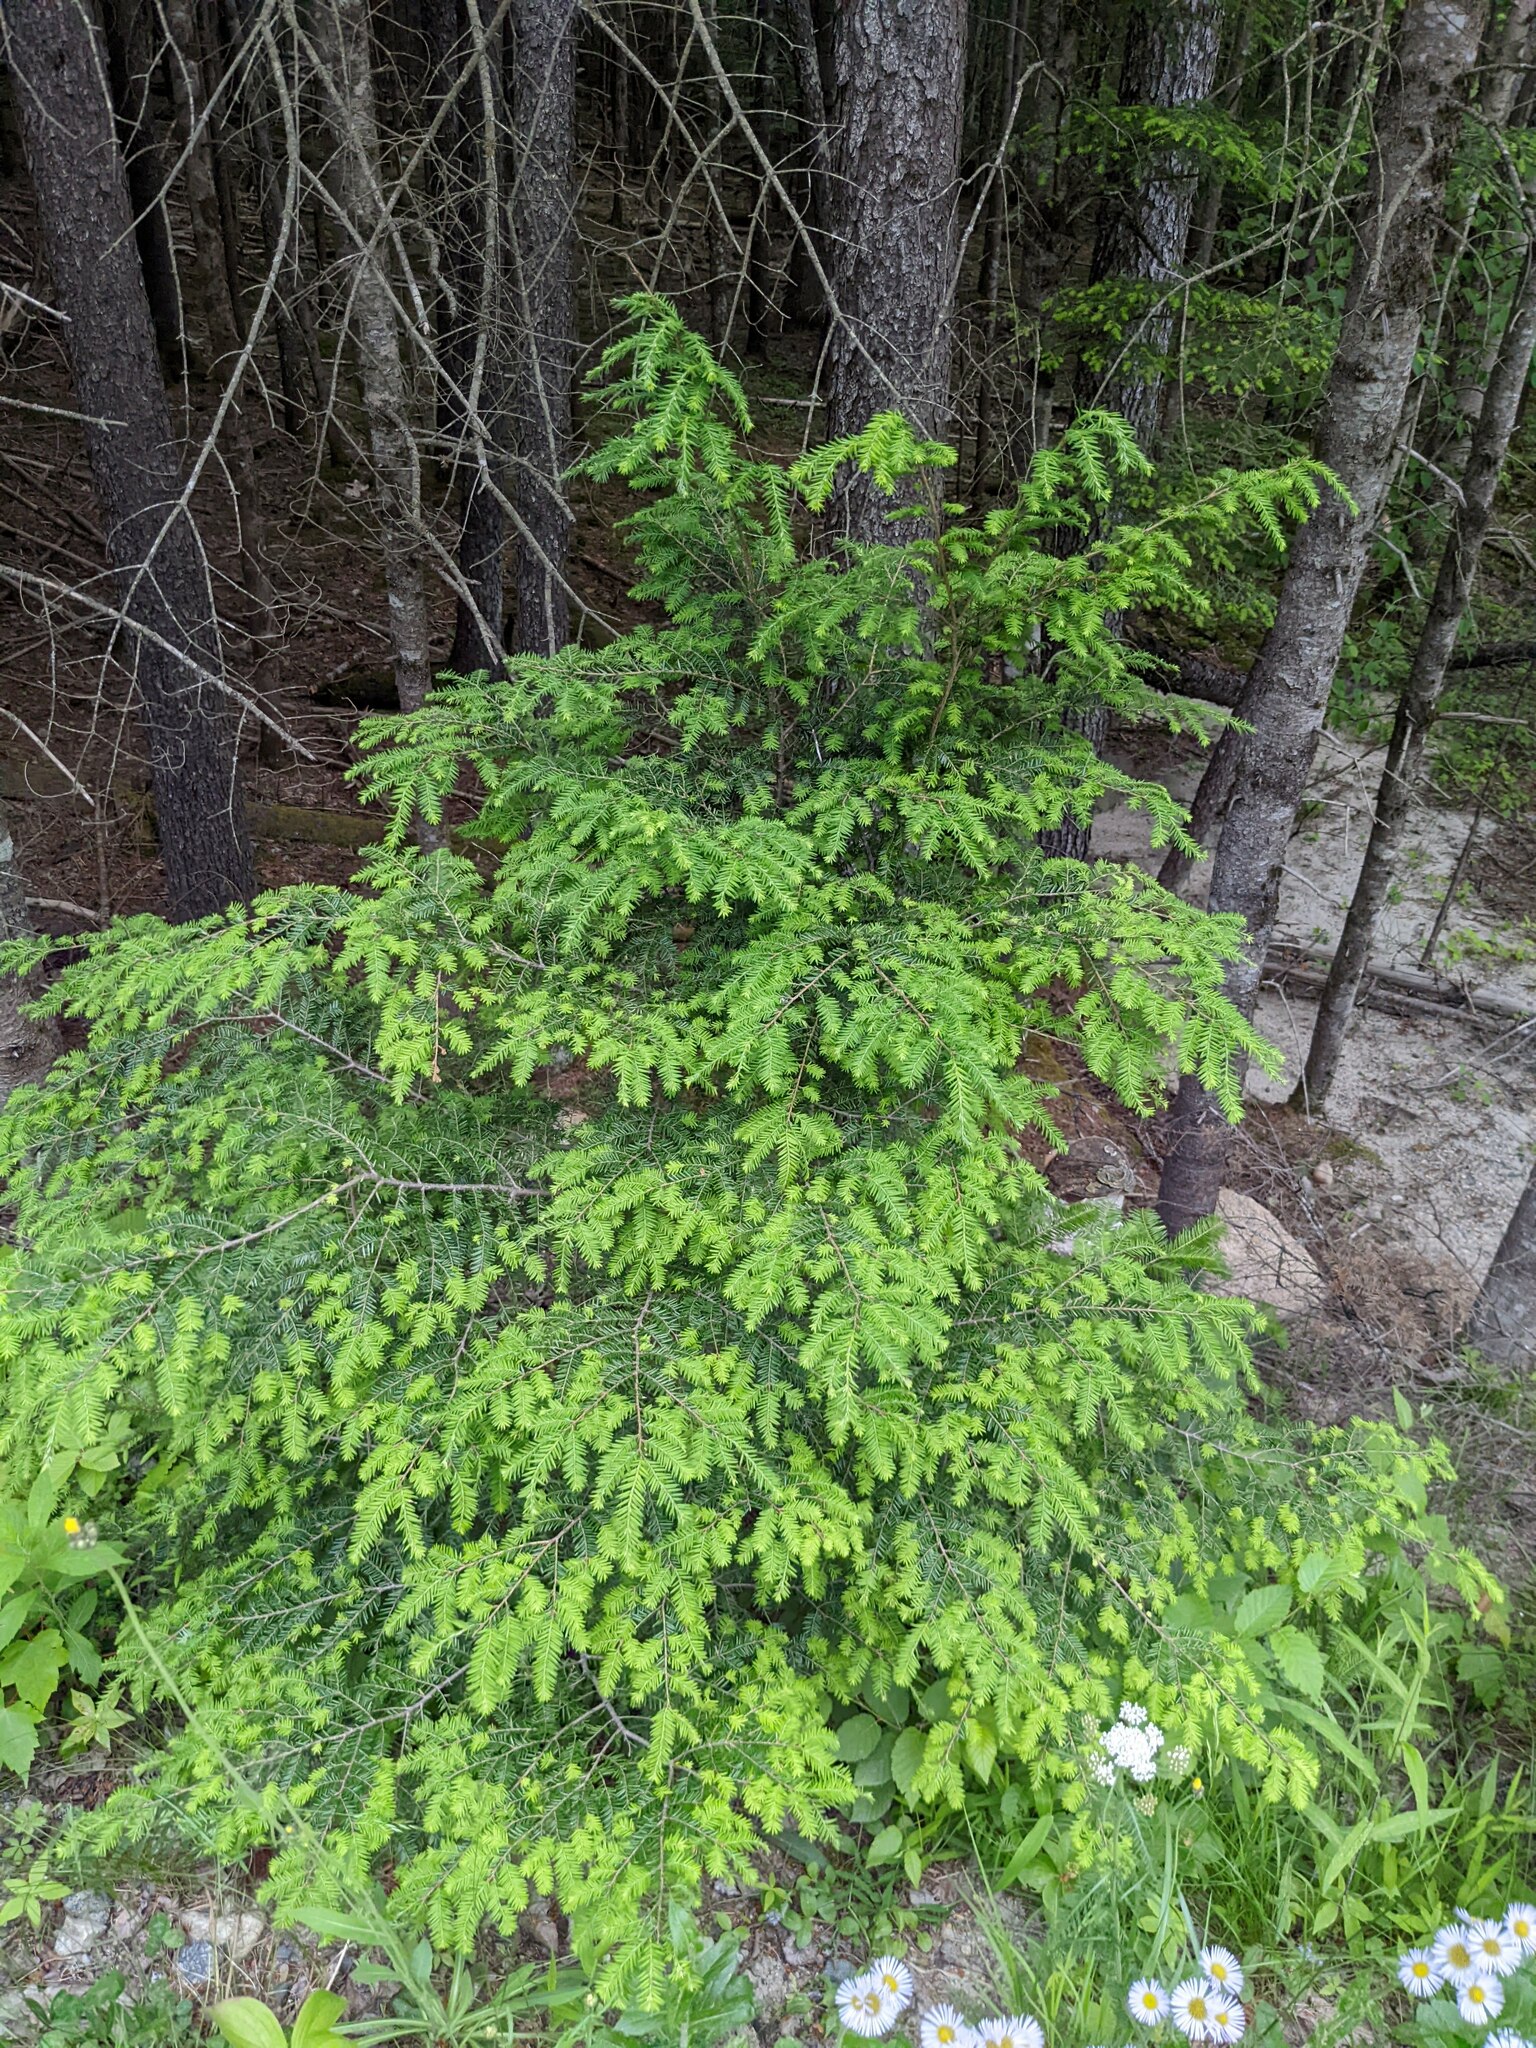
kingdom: Plantae
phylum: Tracheophyta
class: Pinopsida
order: Pinales
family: Pinaceae
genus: Tsuga
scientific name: Tsuga canadensis
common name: Eastern hemlock
